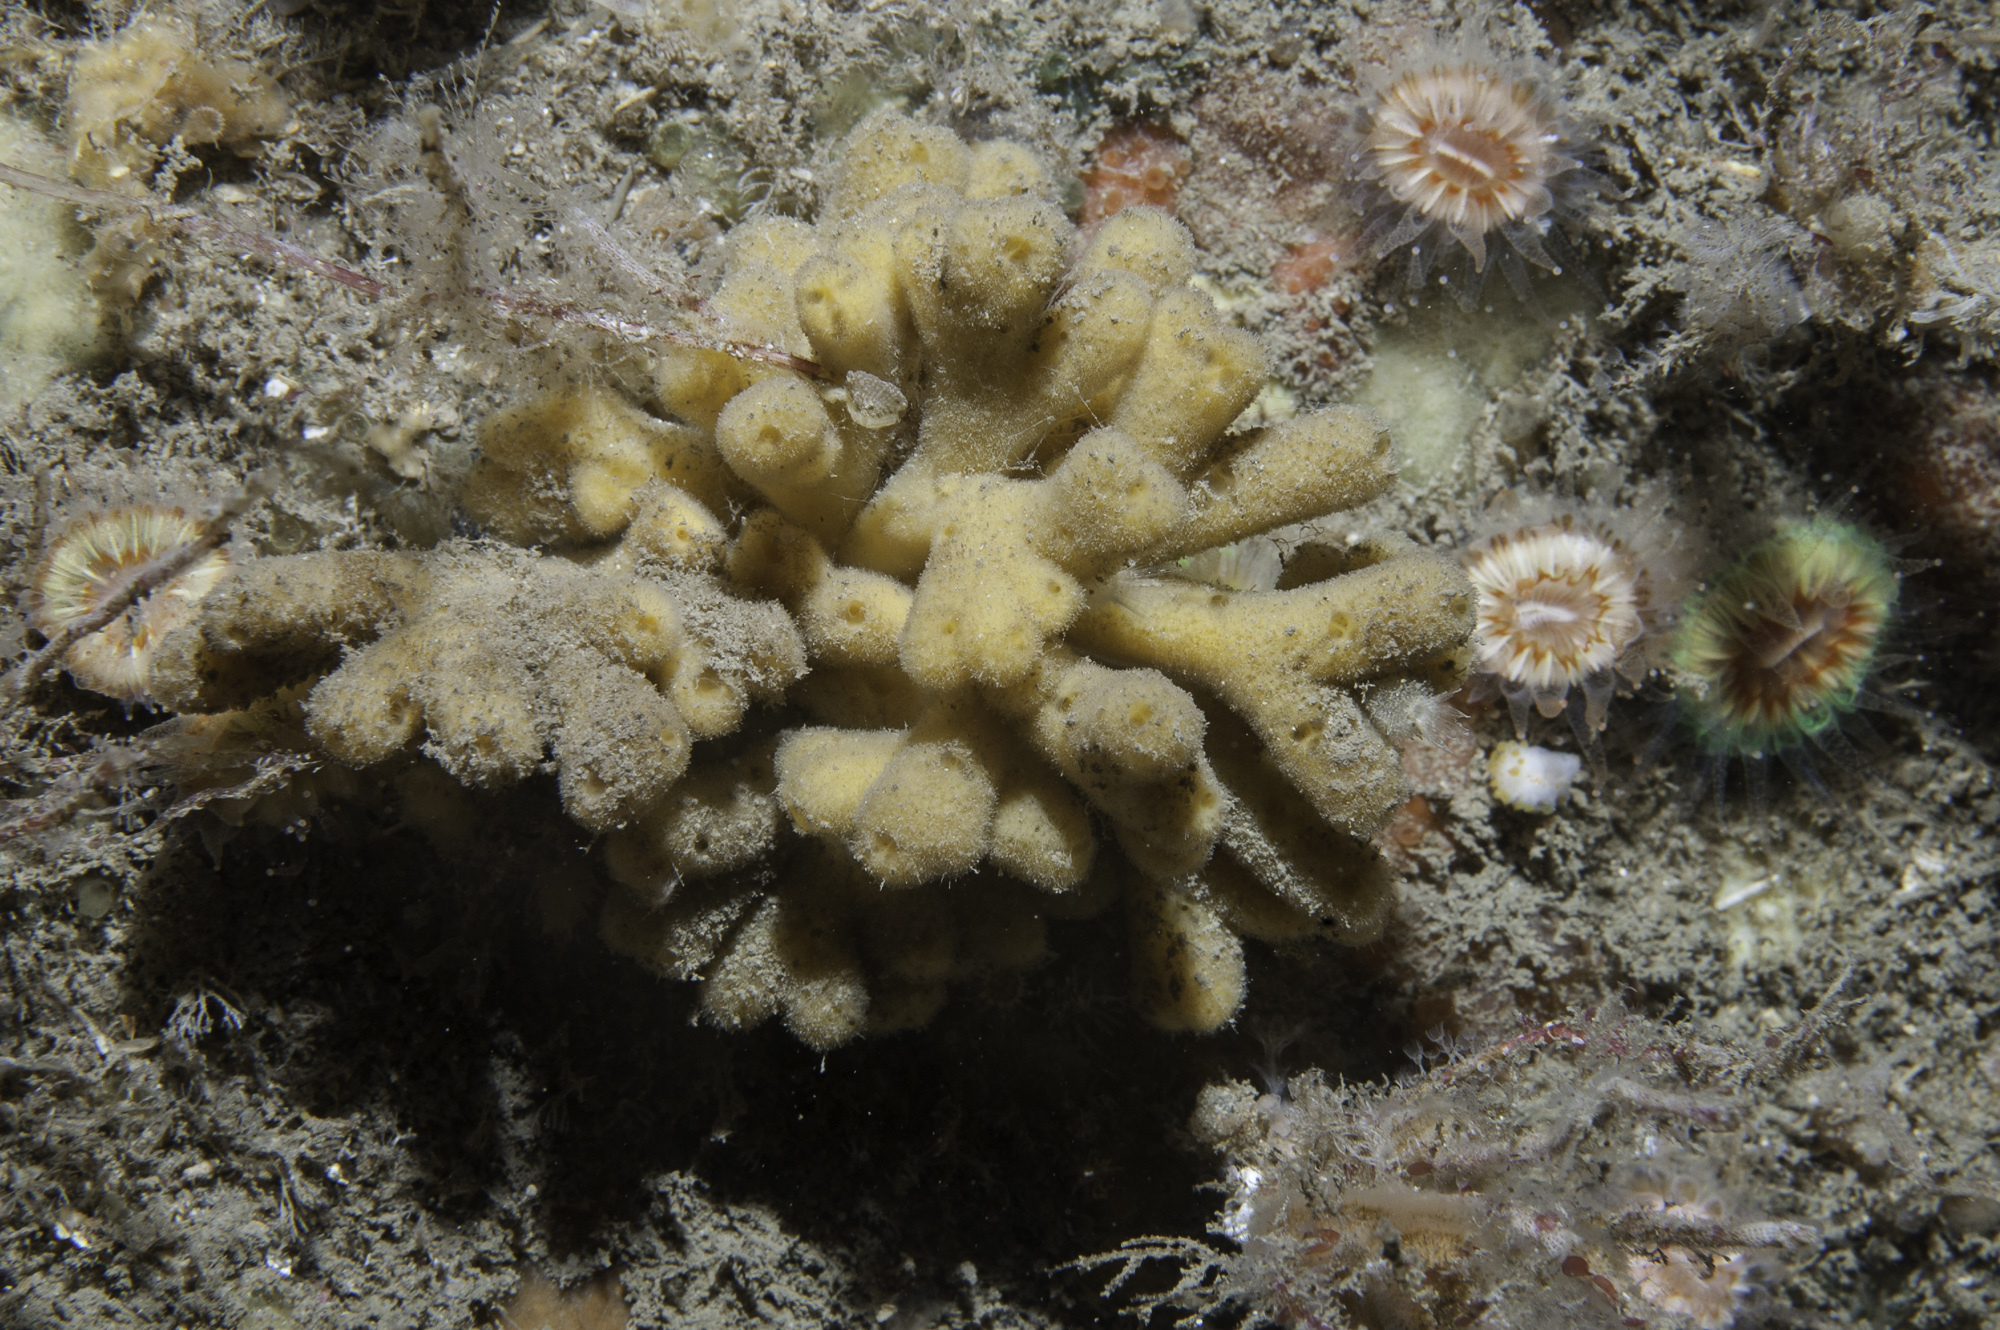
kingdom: Animalia
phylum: Porifera
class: Demospongiae
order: Axinellida
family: Stelligeridae
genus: Stelligera
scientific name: Stelligera stuposa
